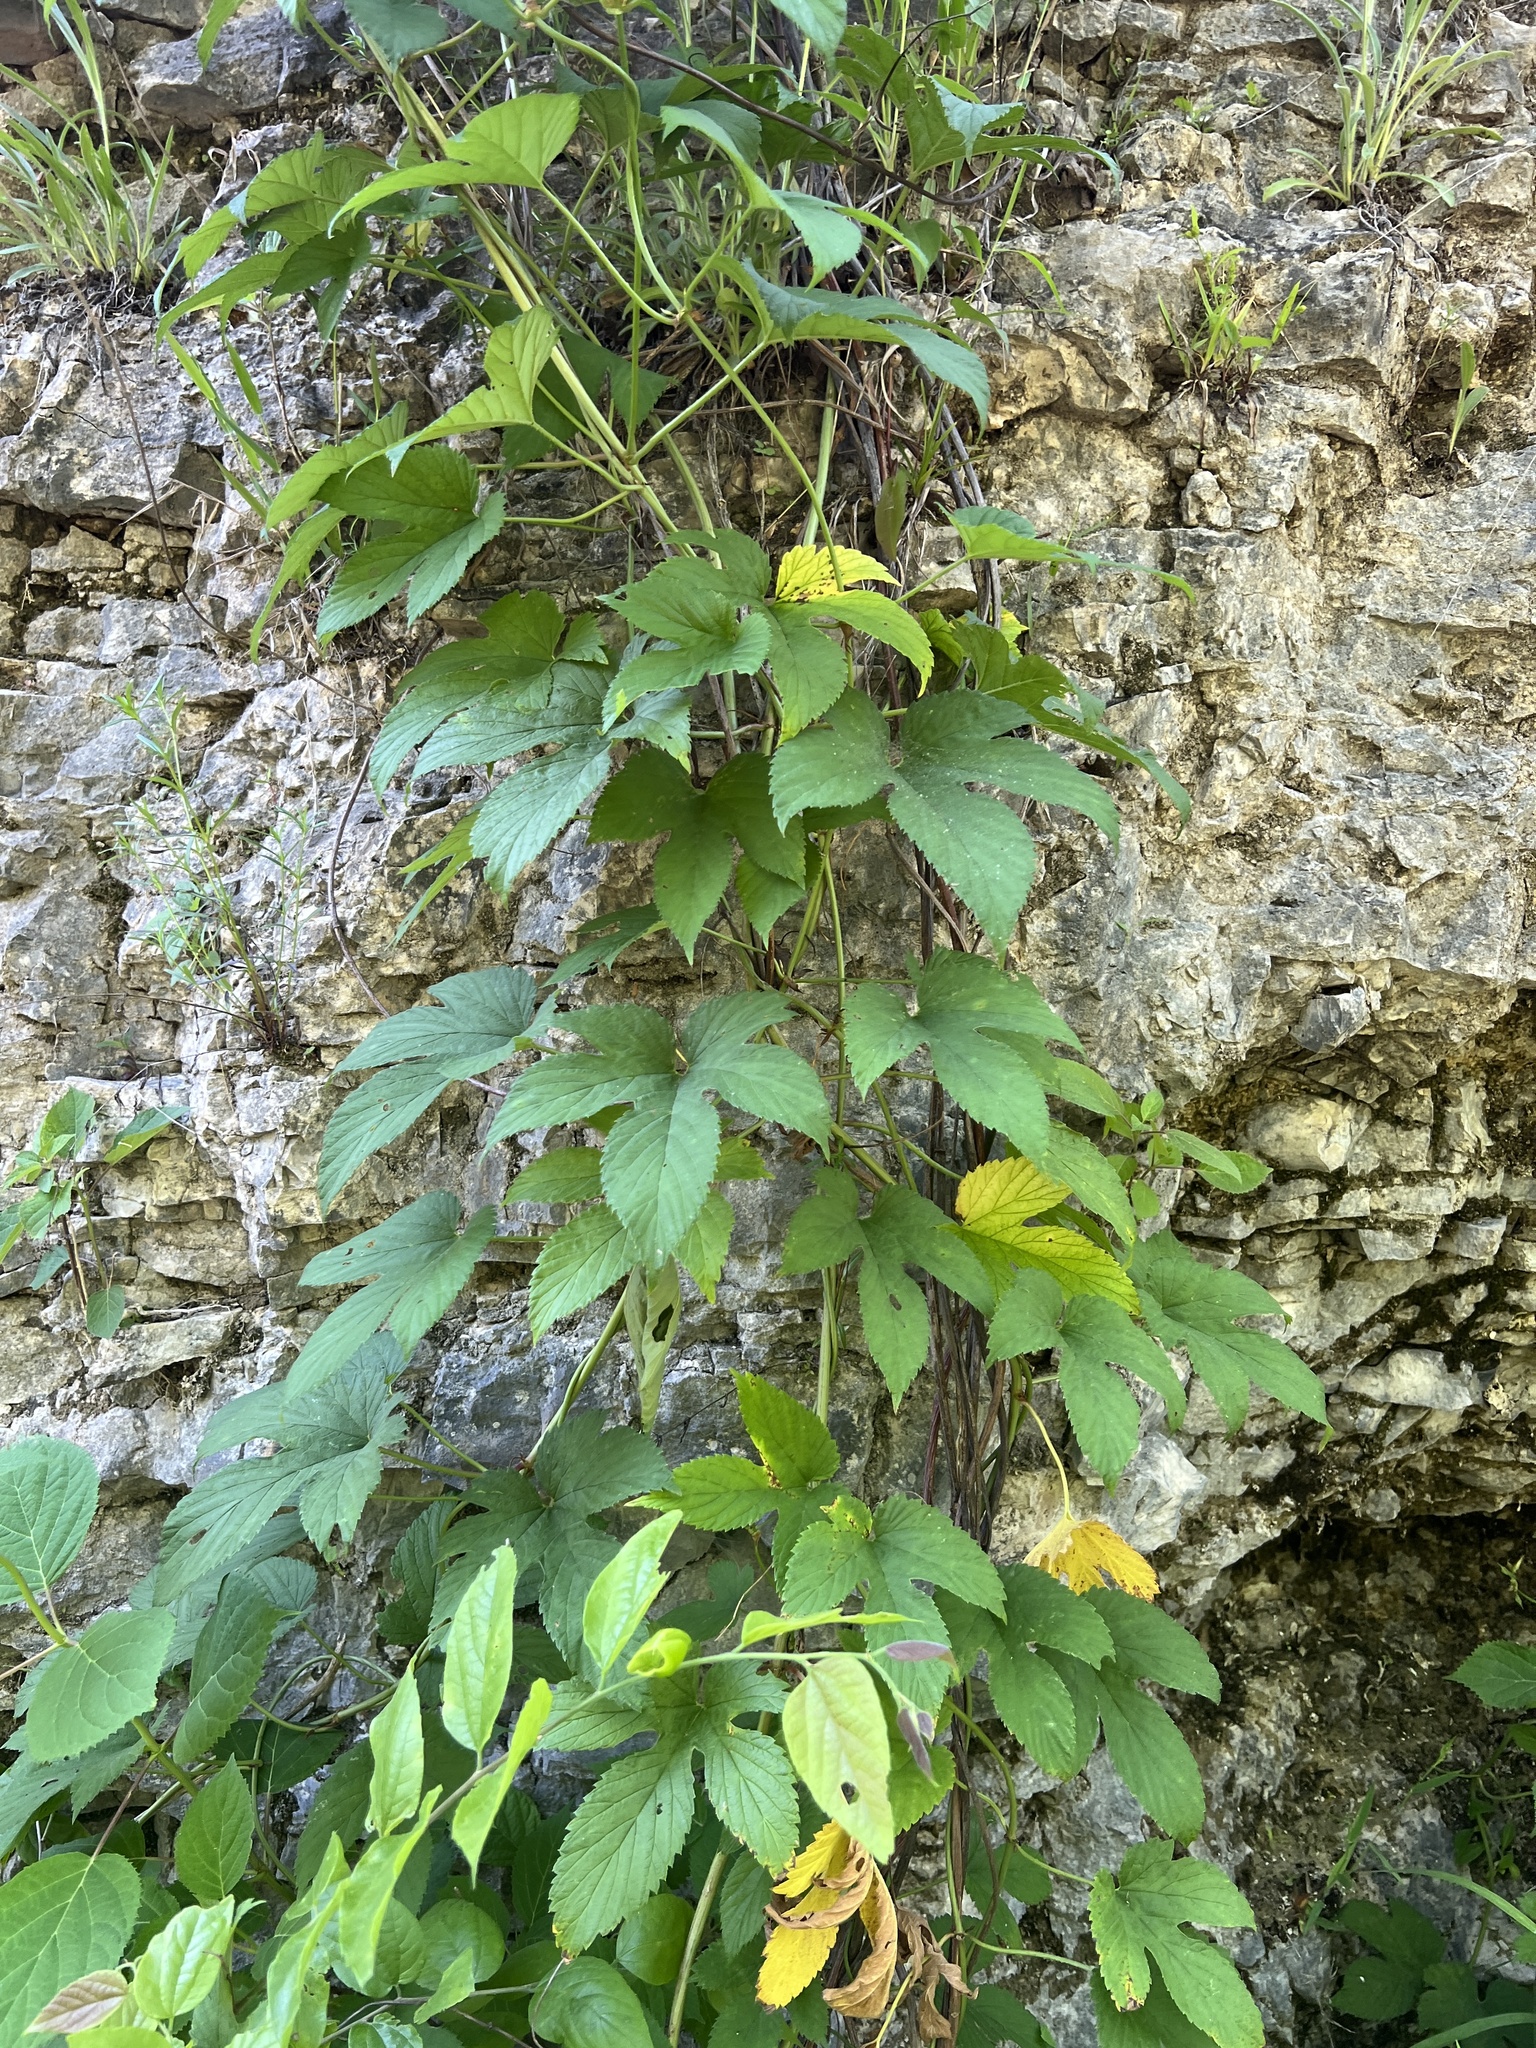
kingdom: Plantae
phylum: Tracheophyta
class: Magnoliopsida
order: Rosales
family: Cannabaceae
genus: Humulus
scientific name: Humulus lupulus
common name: Hop
